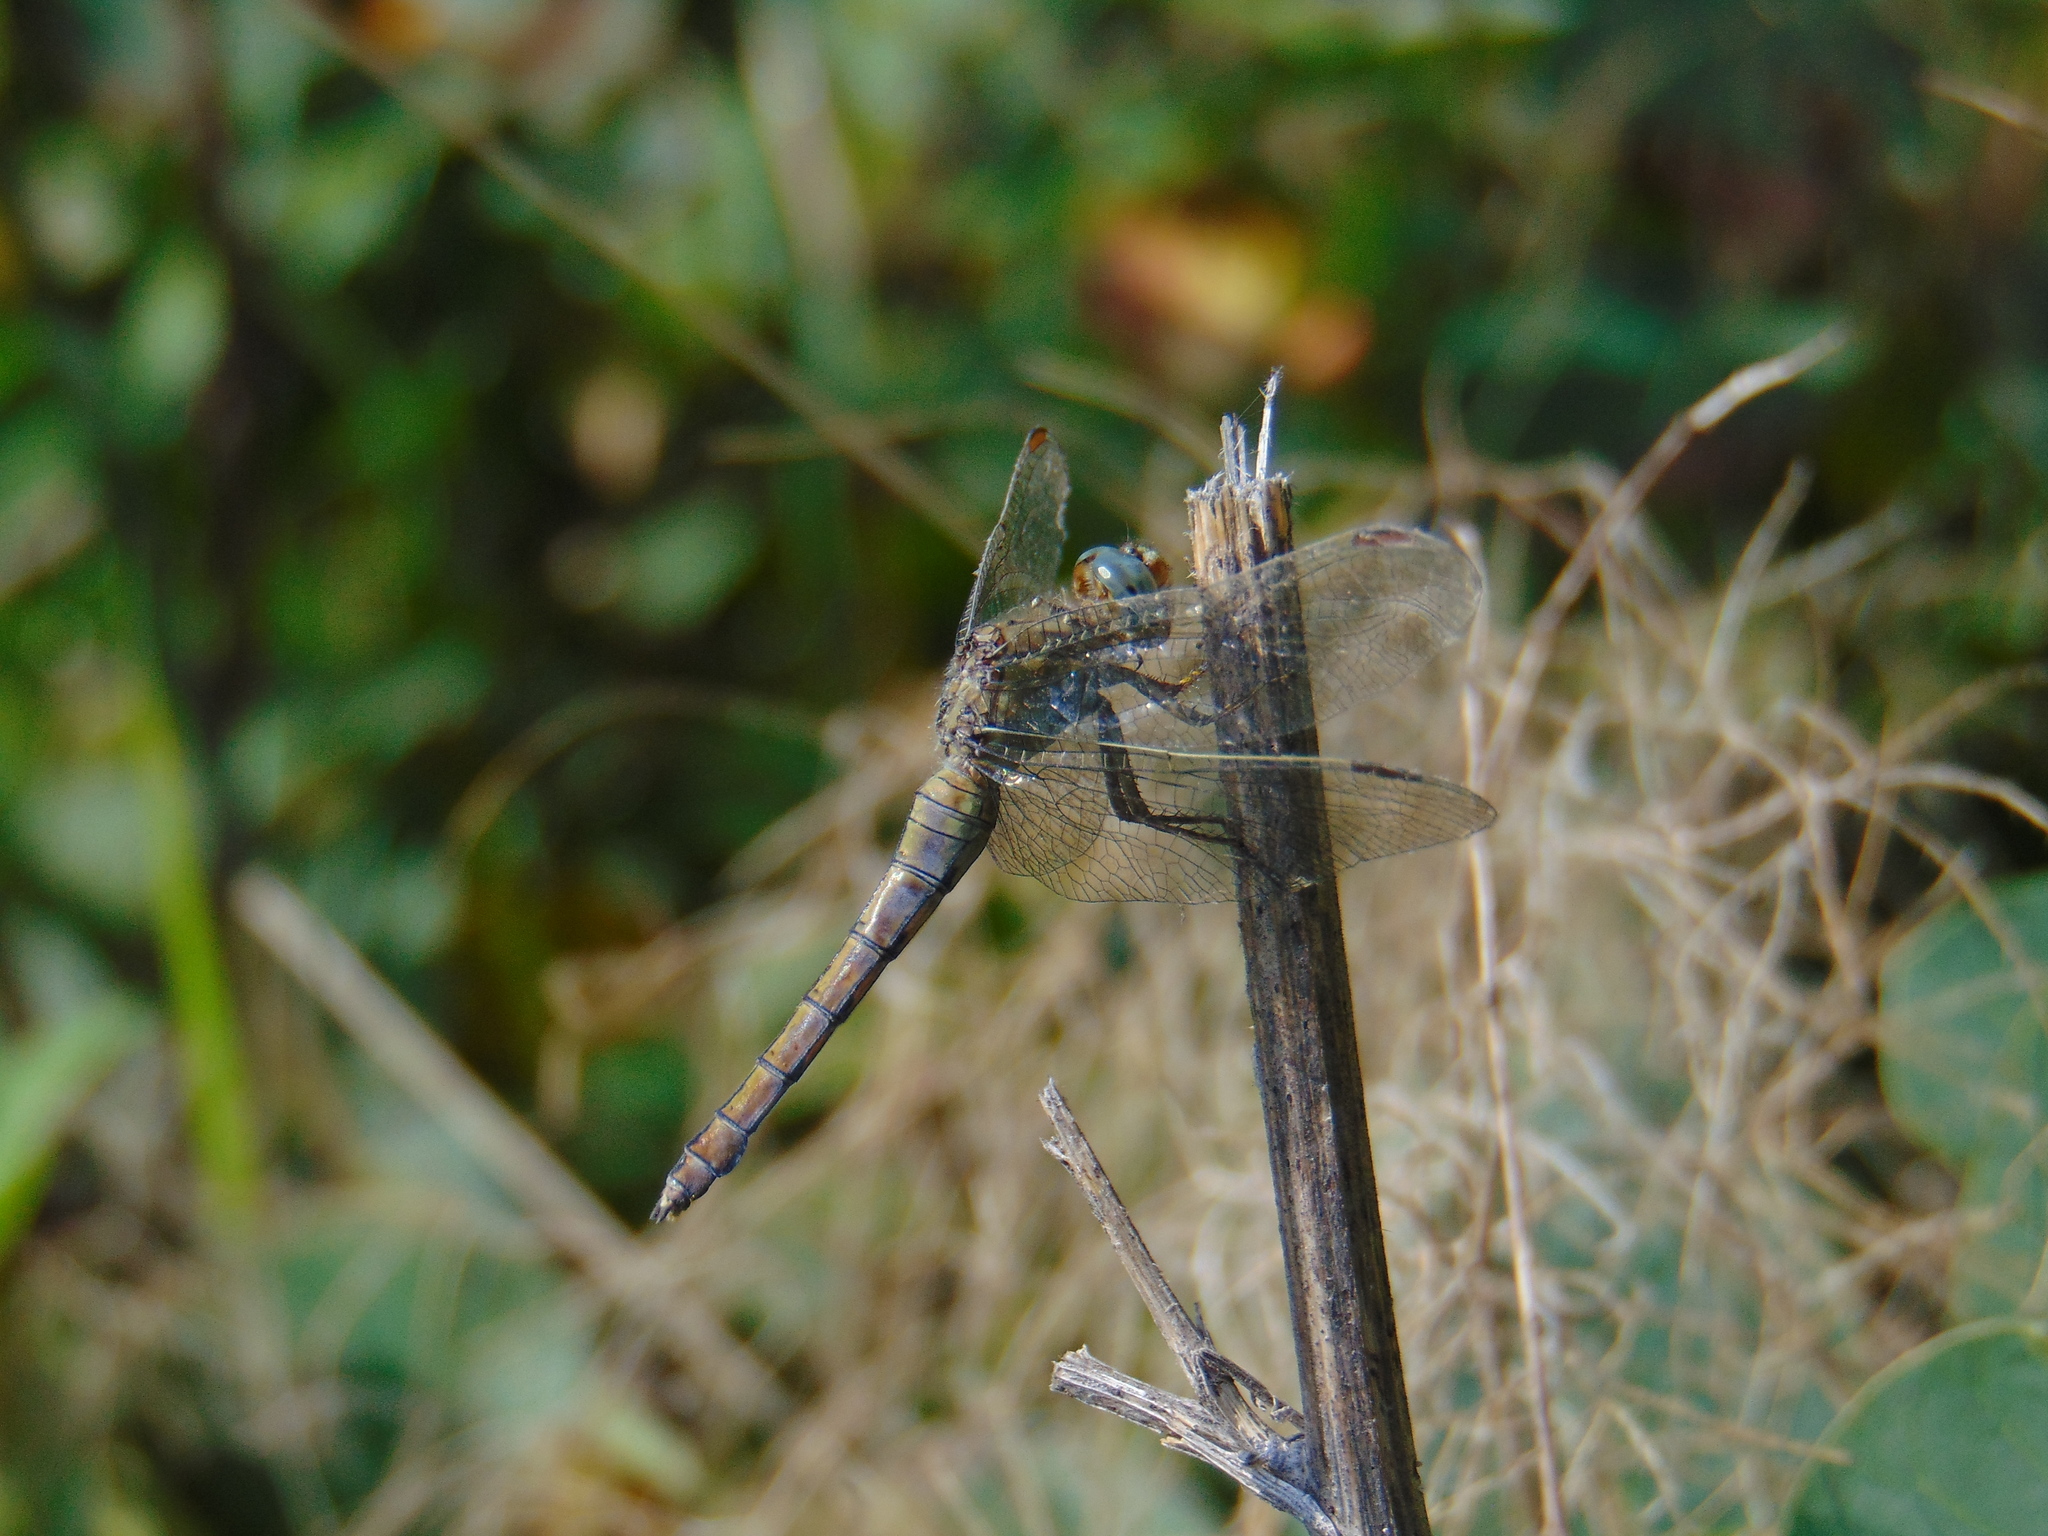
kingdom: Animalia
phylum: Arthropoda
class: Insecta
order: Odonata
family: Libellulidae
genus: Orthetrum
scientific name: Orthetrum coerulescens
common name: Keeled skimmer
